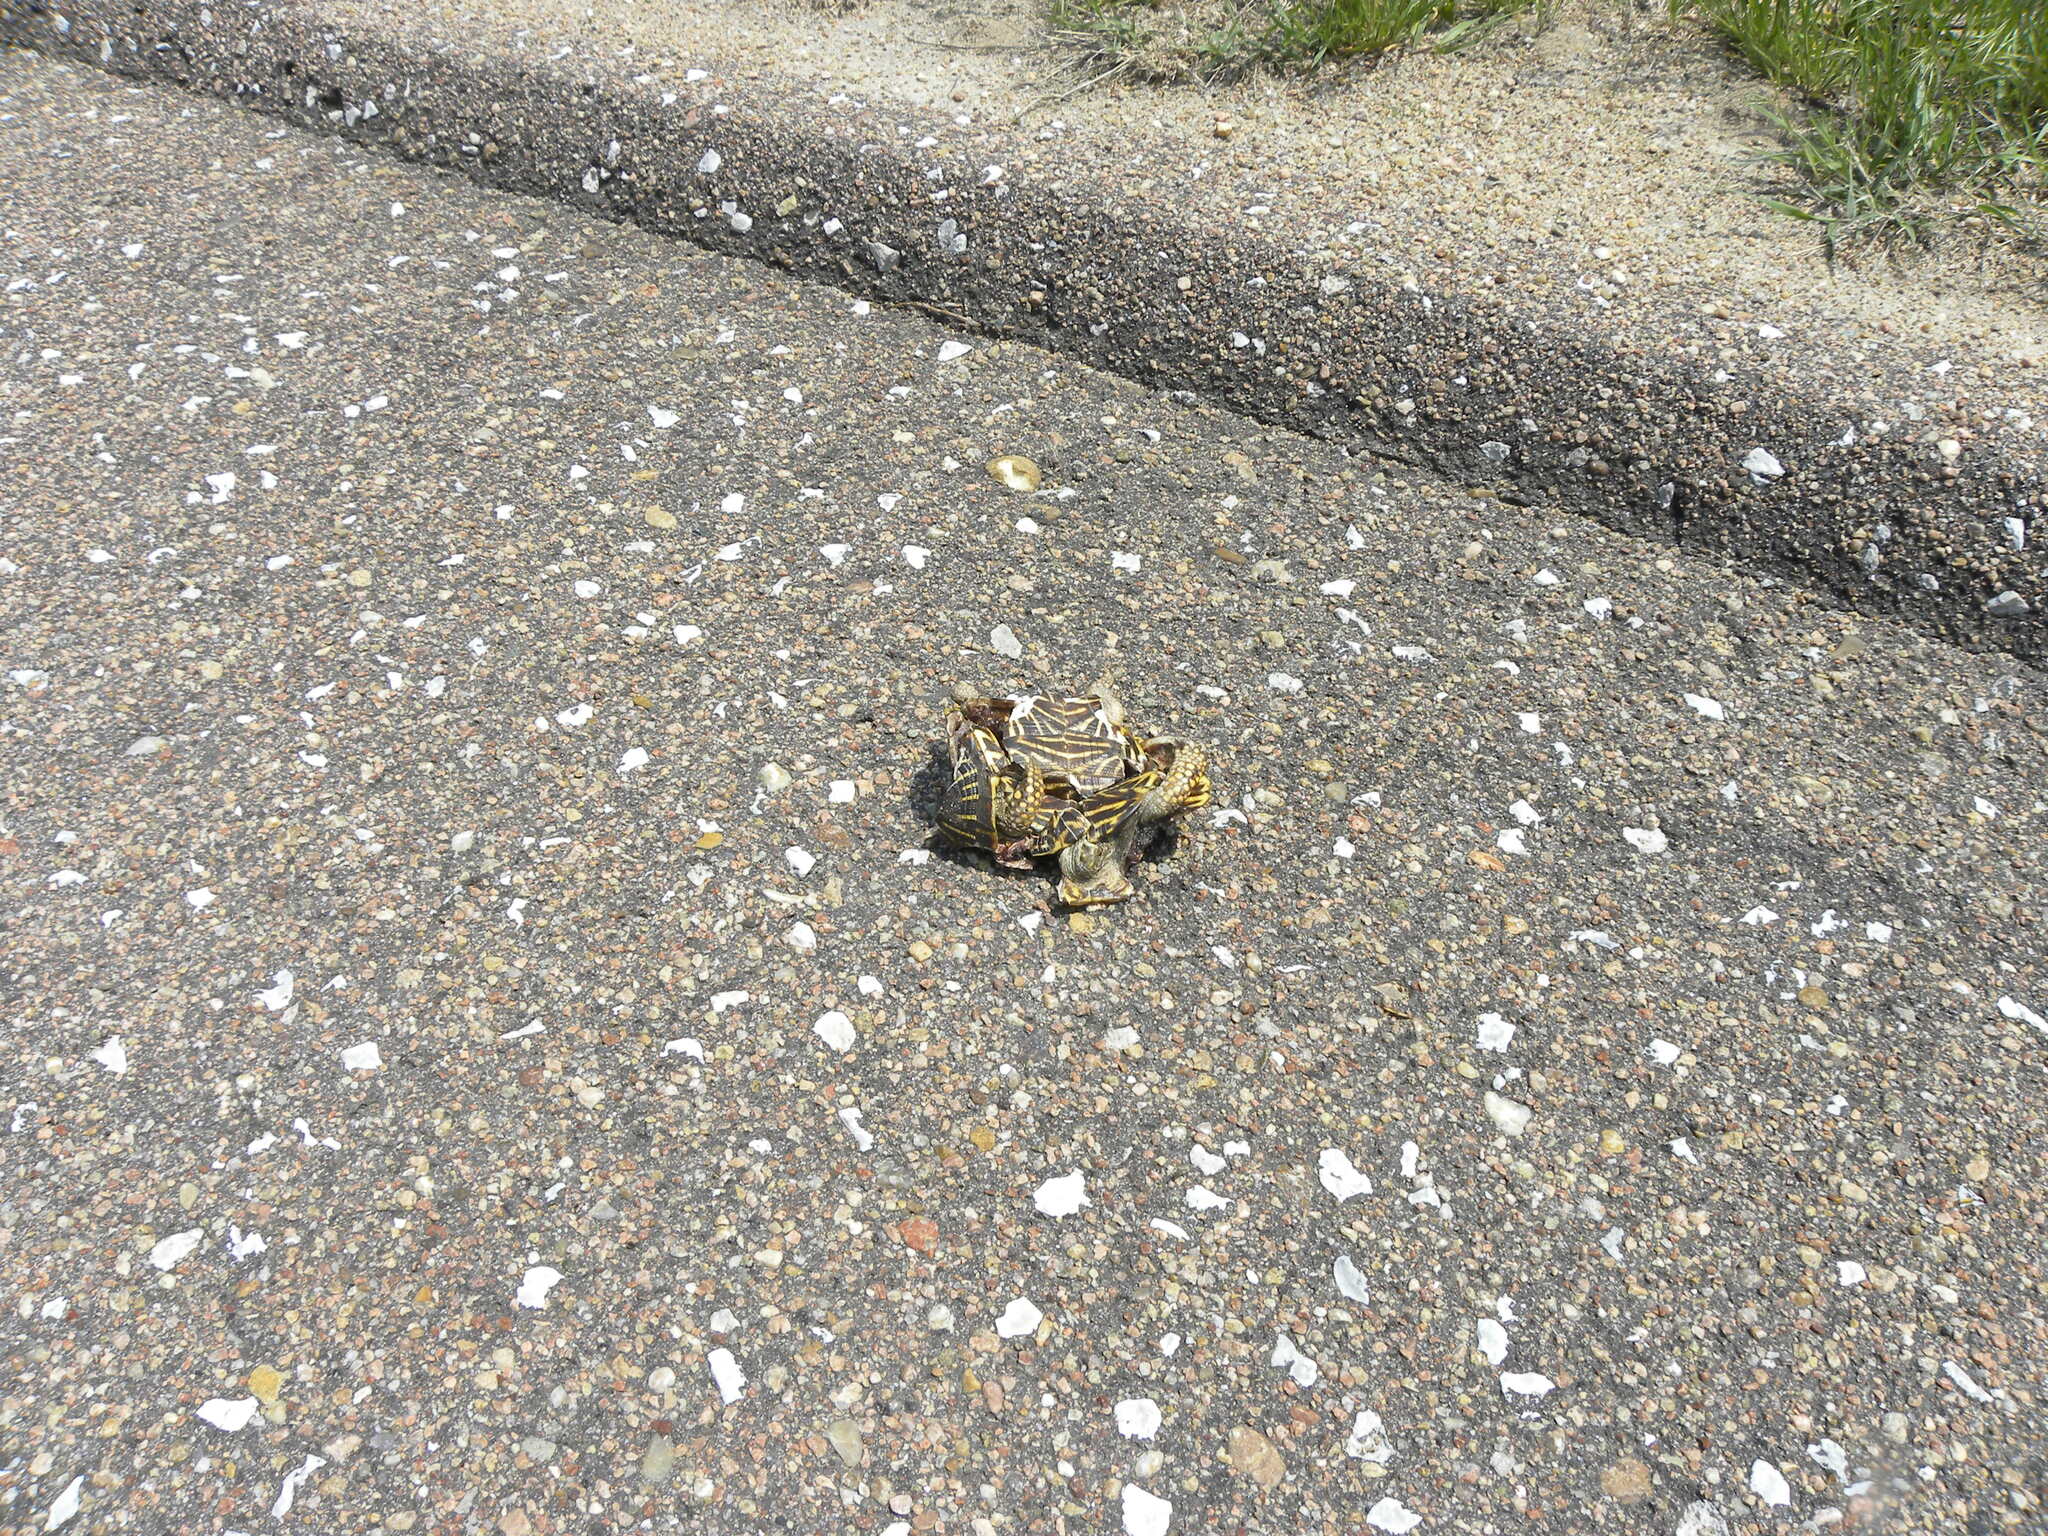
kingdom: Animalia
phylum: Chordata
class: Testudines
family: Emydidae
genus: Terrapene
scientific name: Terrapene ornata
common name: Western box turtle
